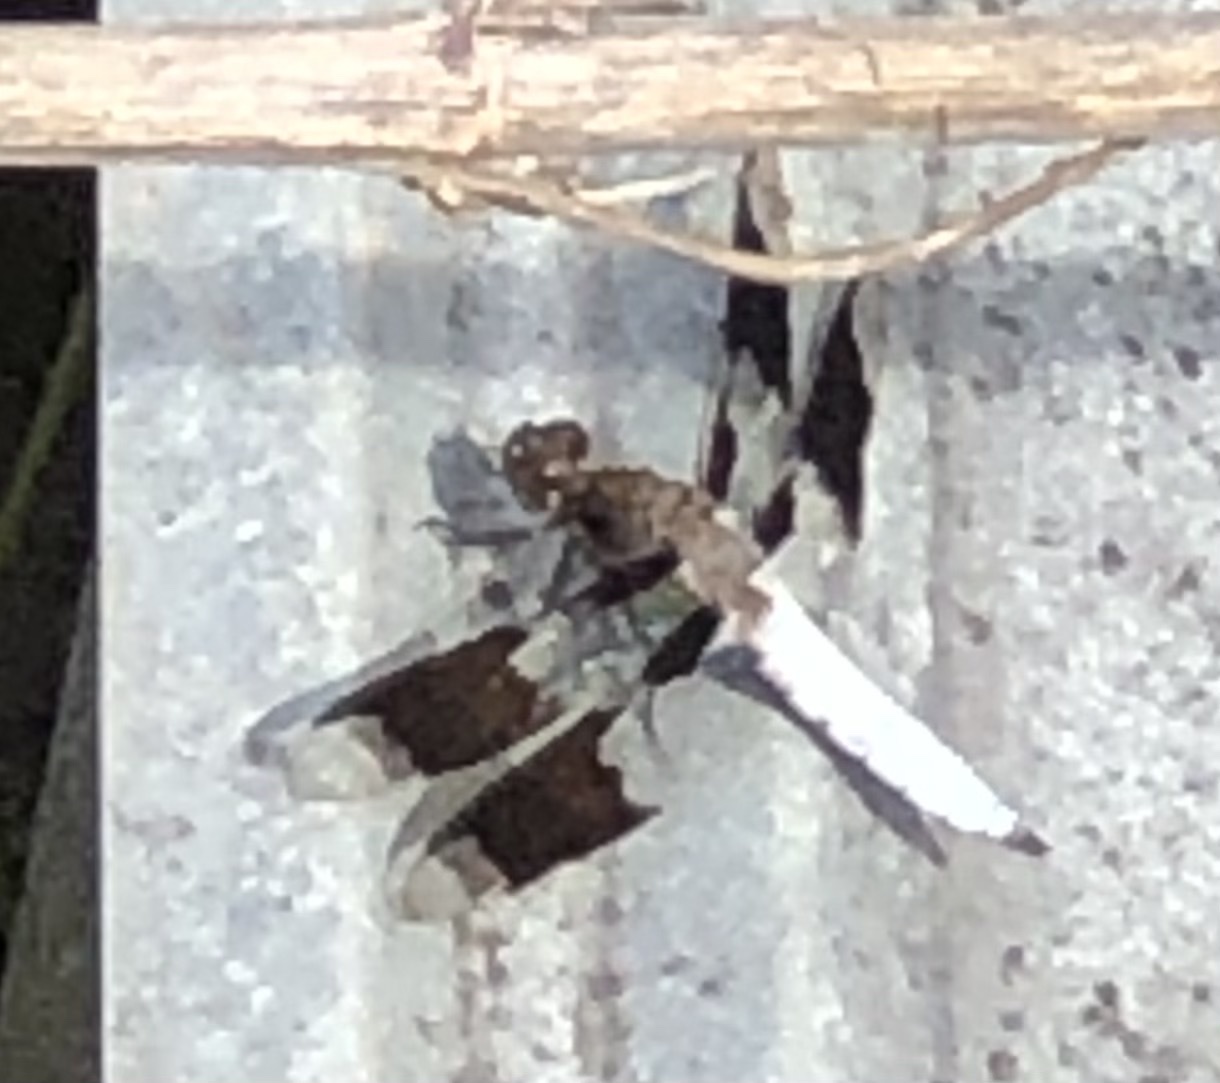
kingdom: Animalia
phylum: Arthropoda
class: Insecta
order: Odonata
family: Libellulidae
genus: Plathemis
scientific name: Plathemis lydia
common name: Common whitetail
